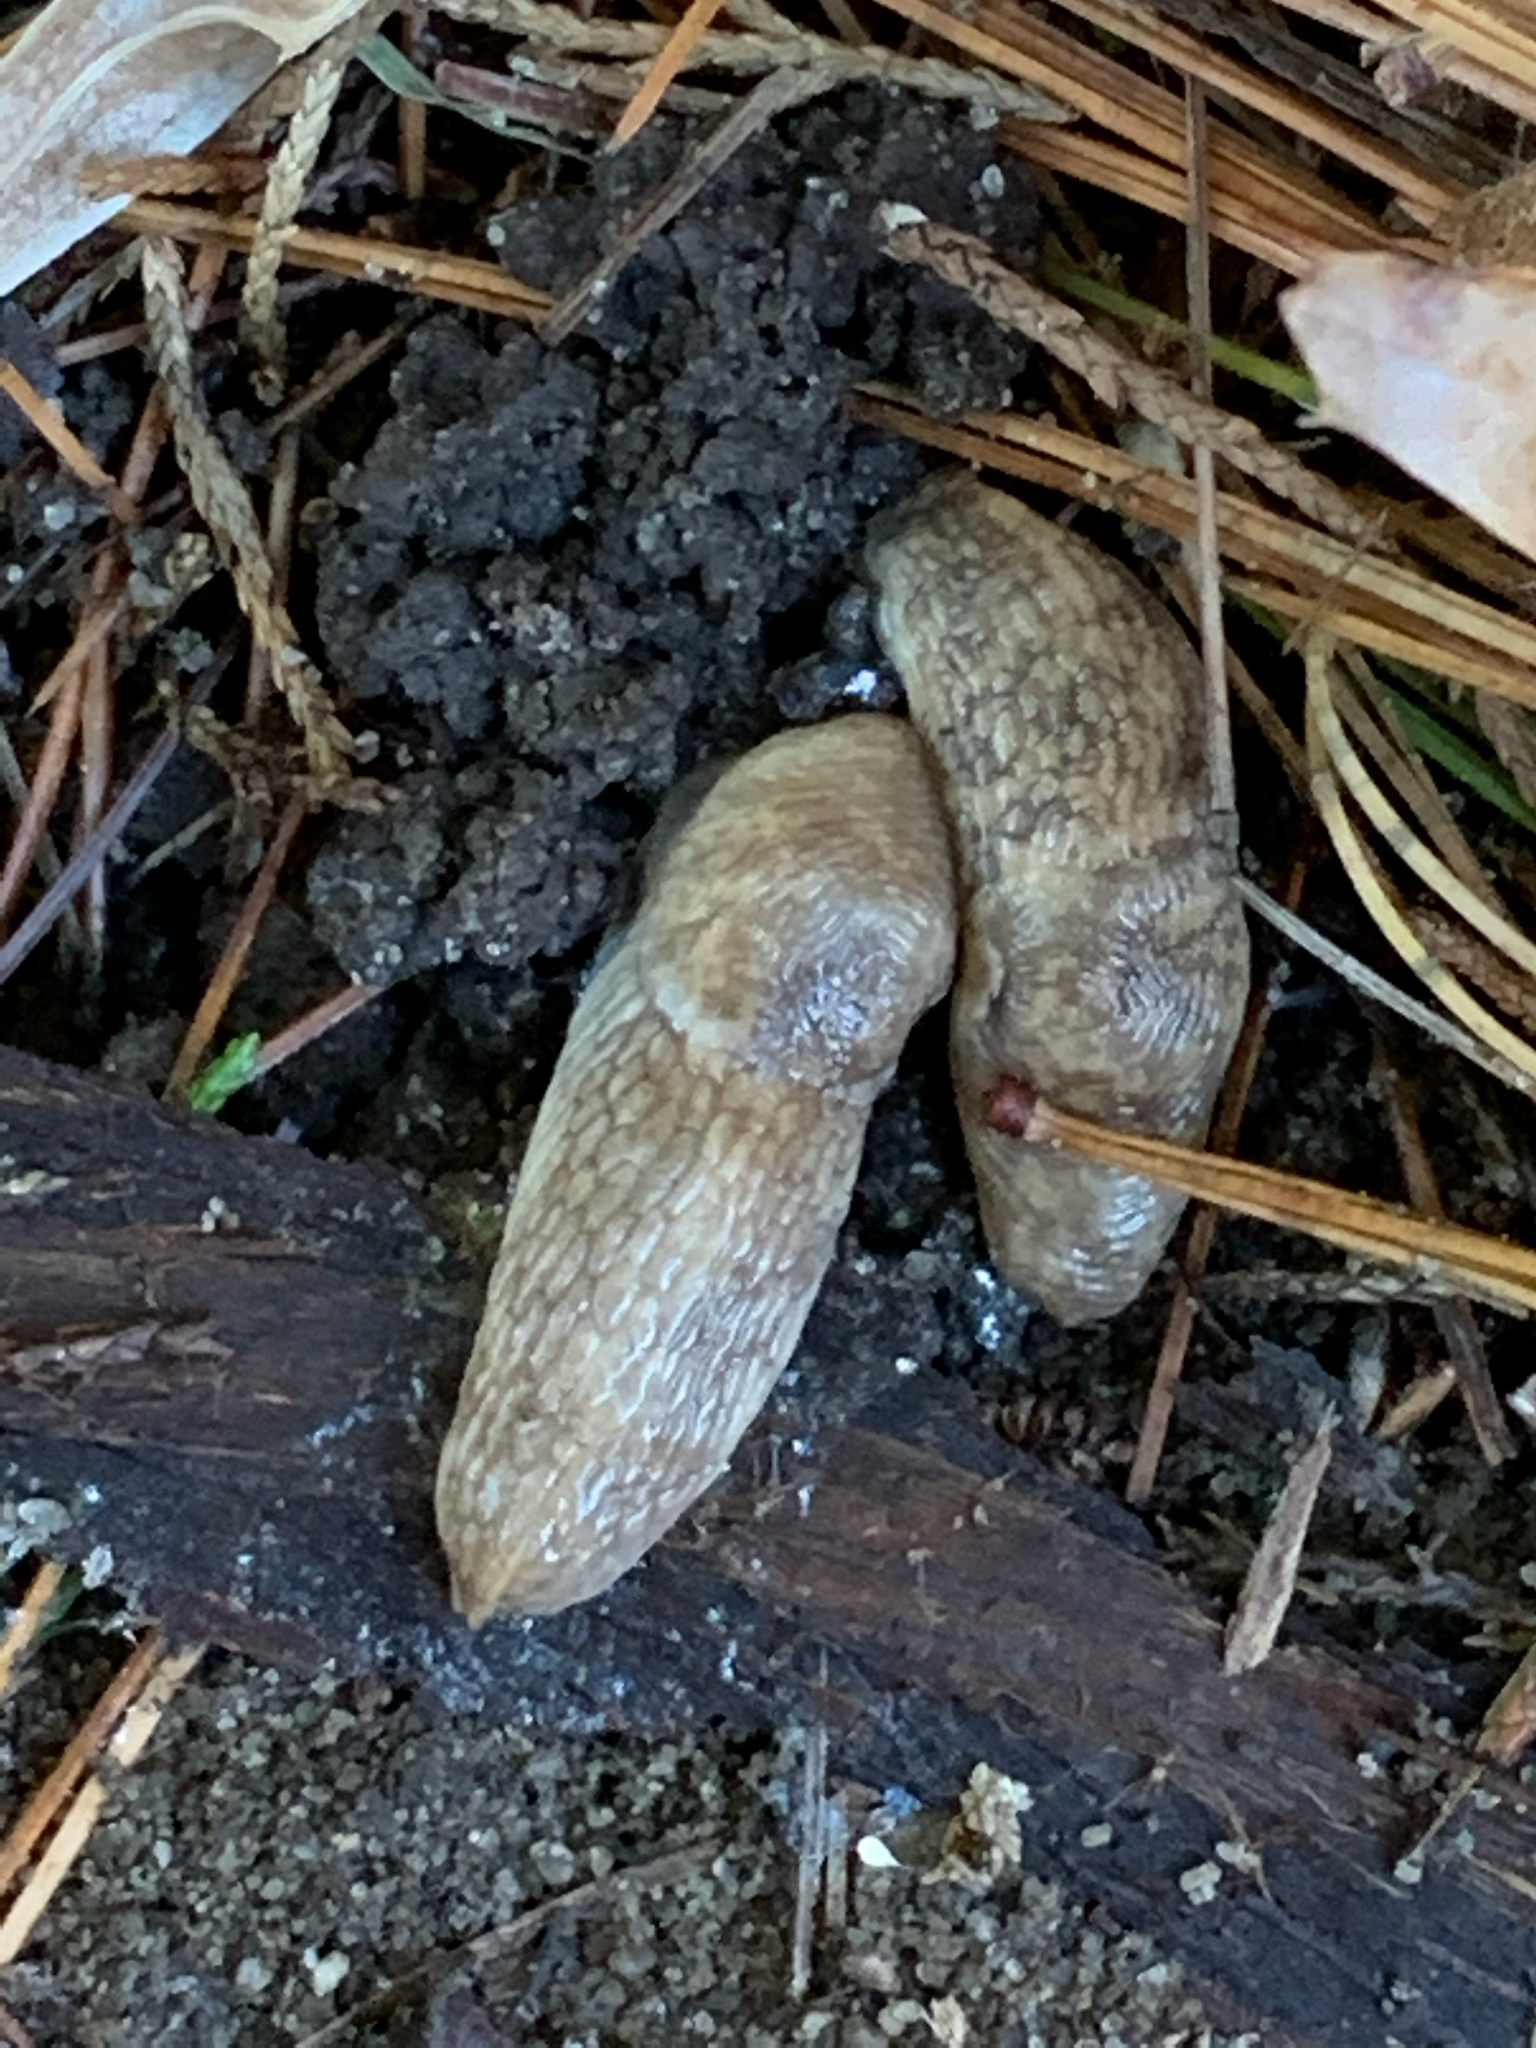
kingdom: Animalia
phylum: Mollusca
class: Gastropoda
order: Stylommatophora
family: Agriolimacidae
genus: Deroceras
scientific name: Deroceras reticulatum
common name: Gray field slug
